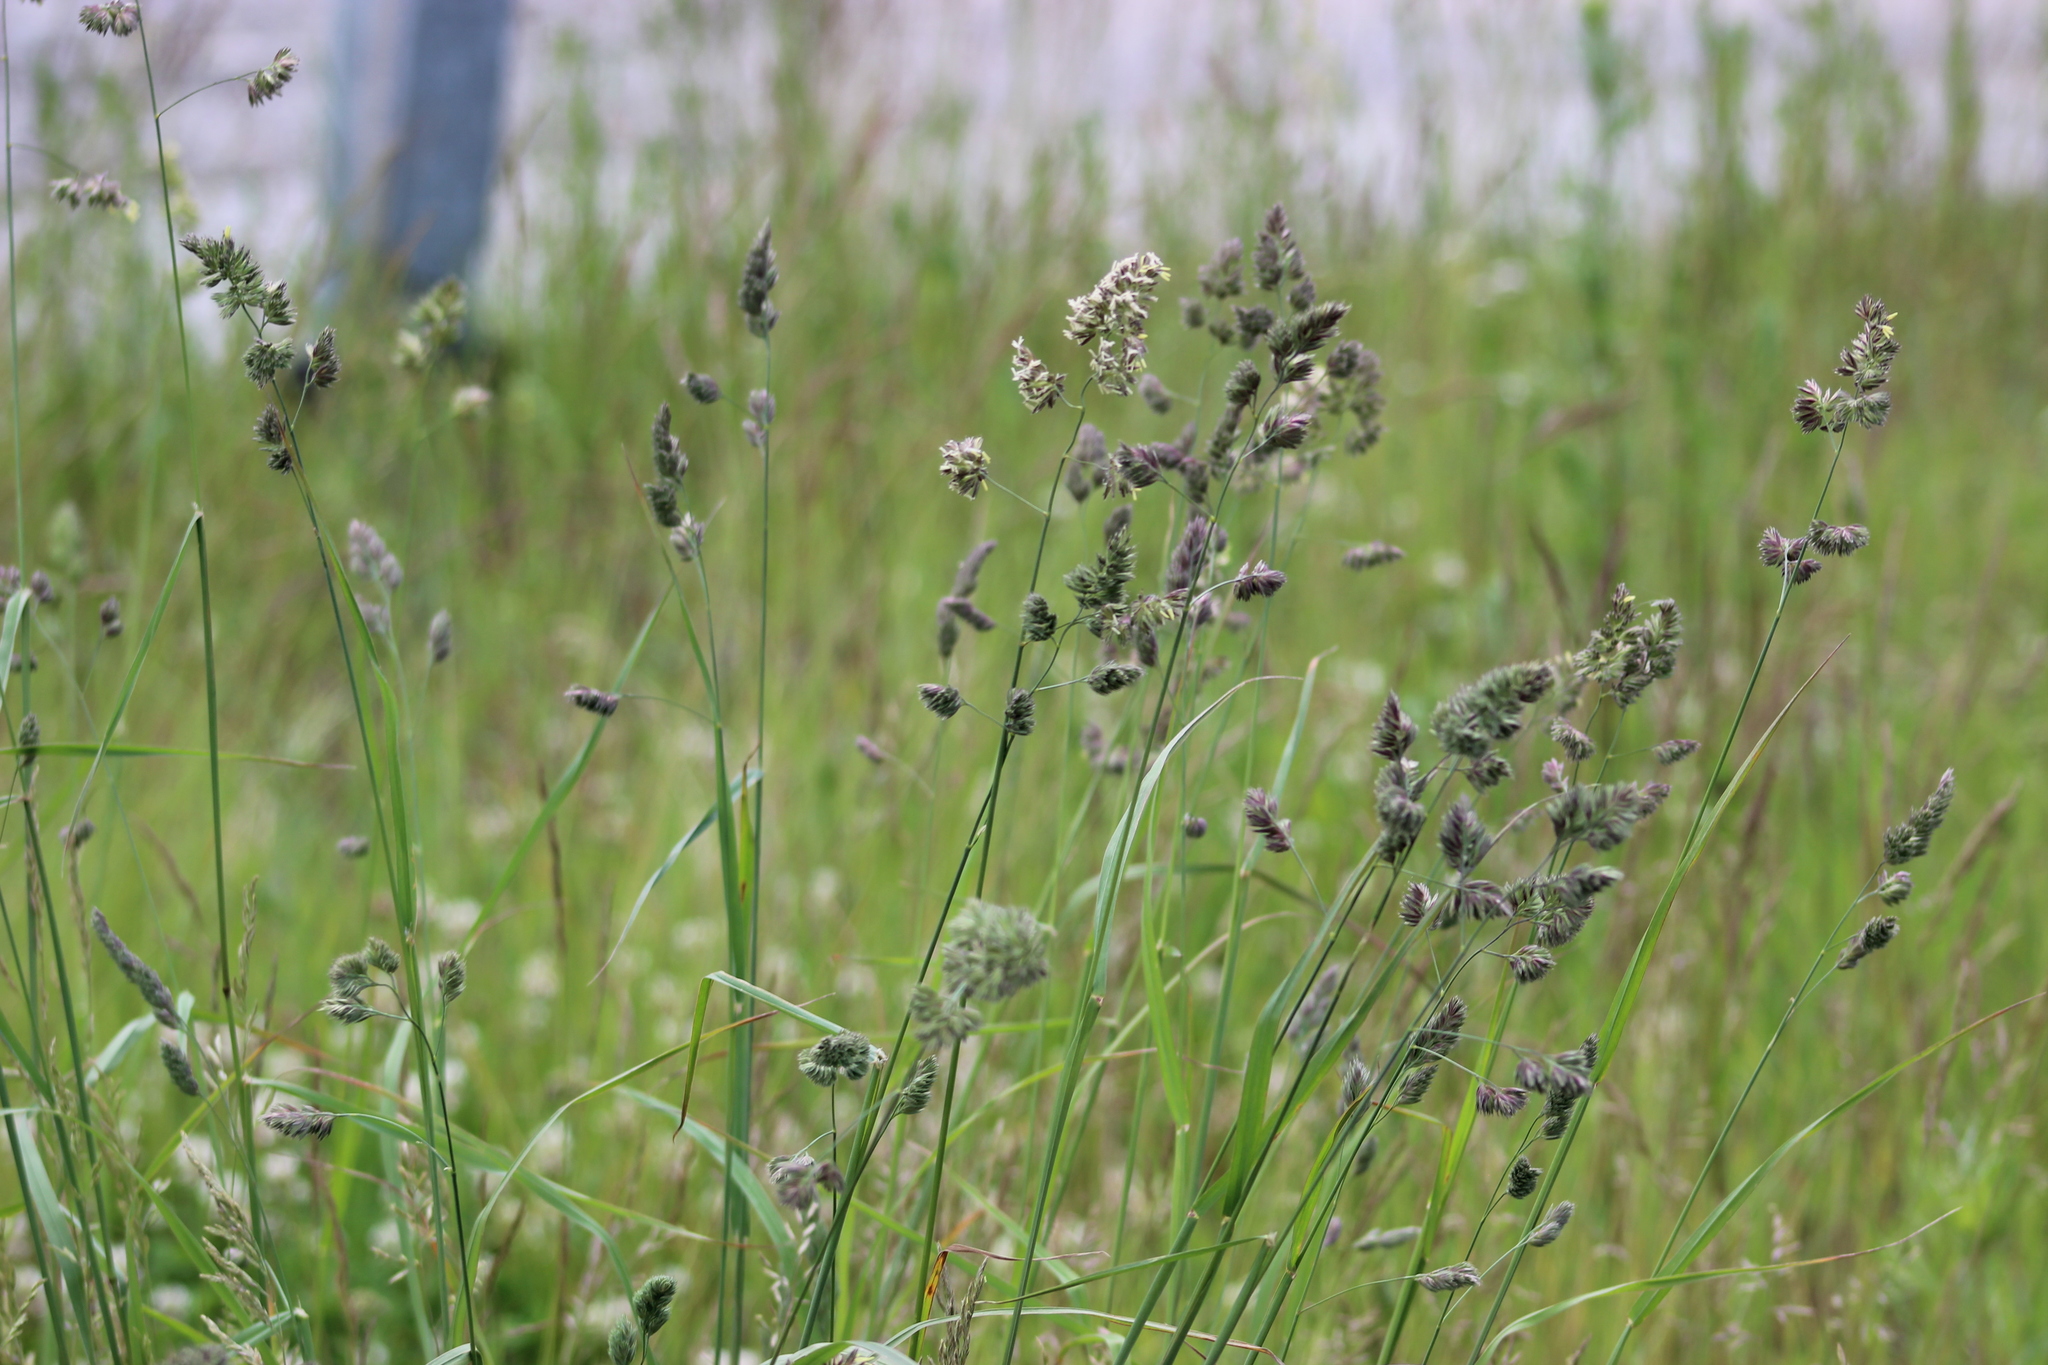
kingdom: Plantae
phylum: Tracheophyta
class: Liliopsida
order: Poales
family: Poaceae
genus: Dactylis
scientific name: Dactylis glomerata
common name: Orchardgrass
